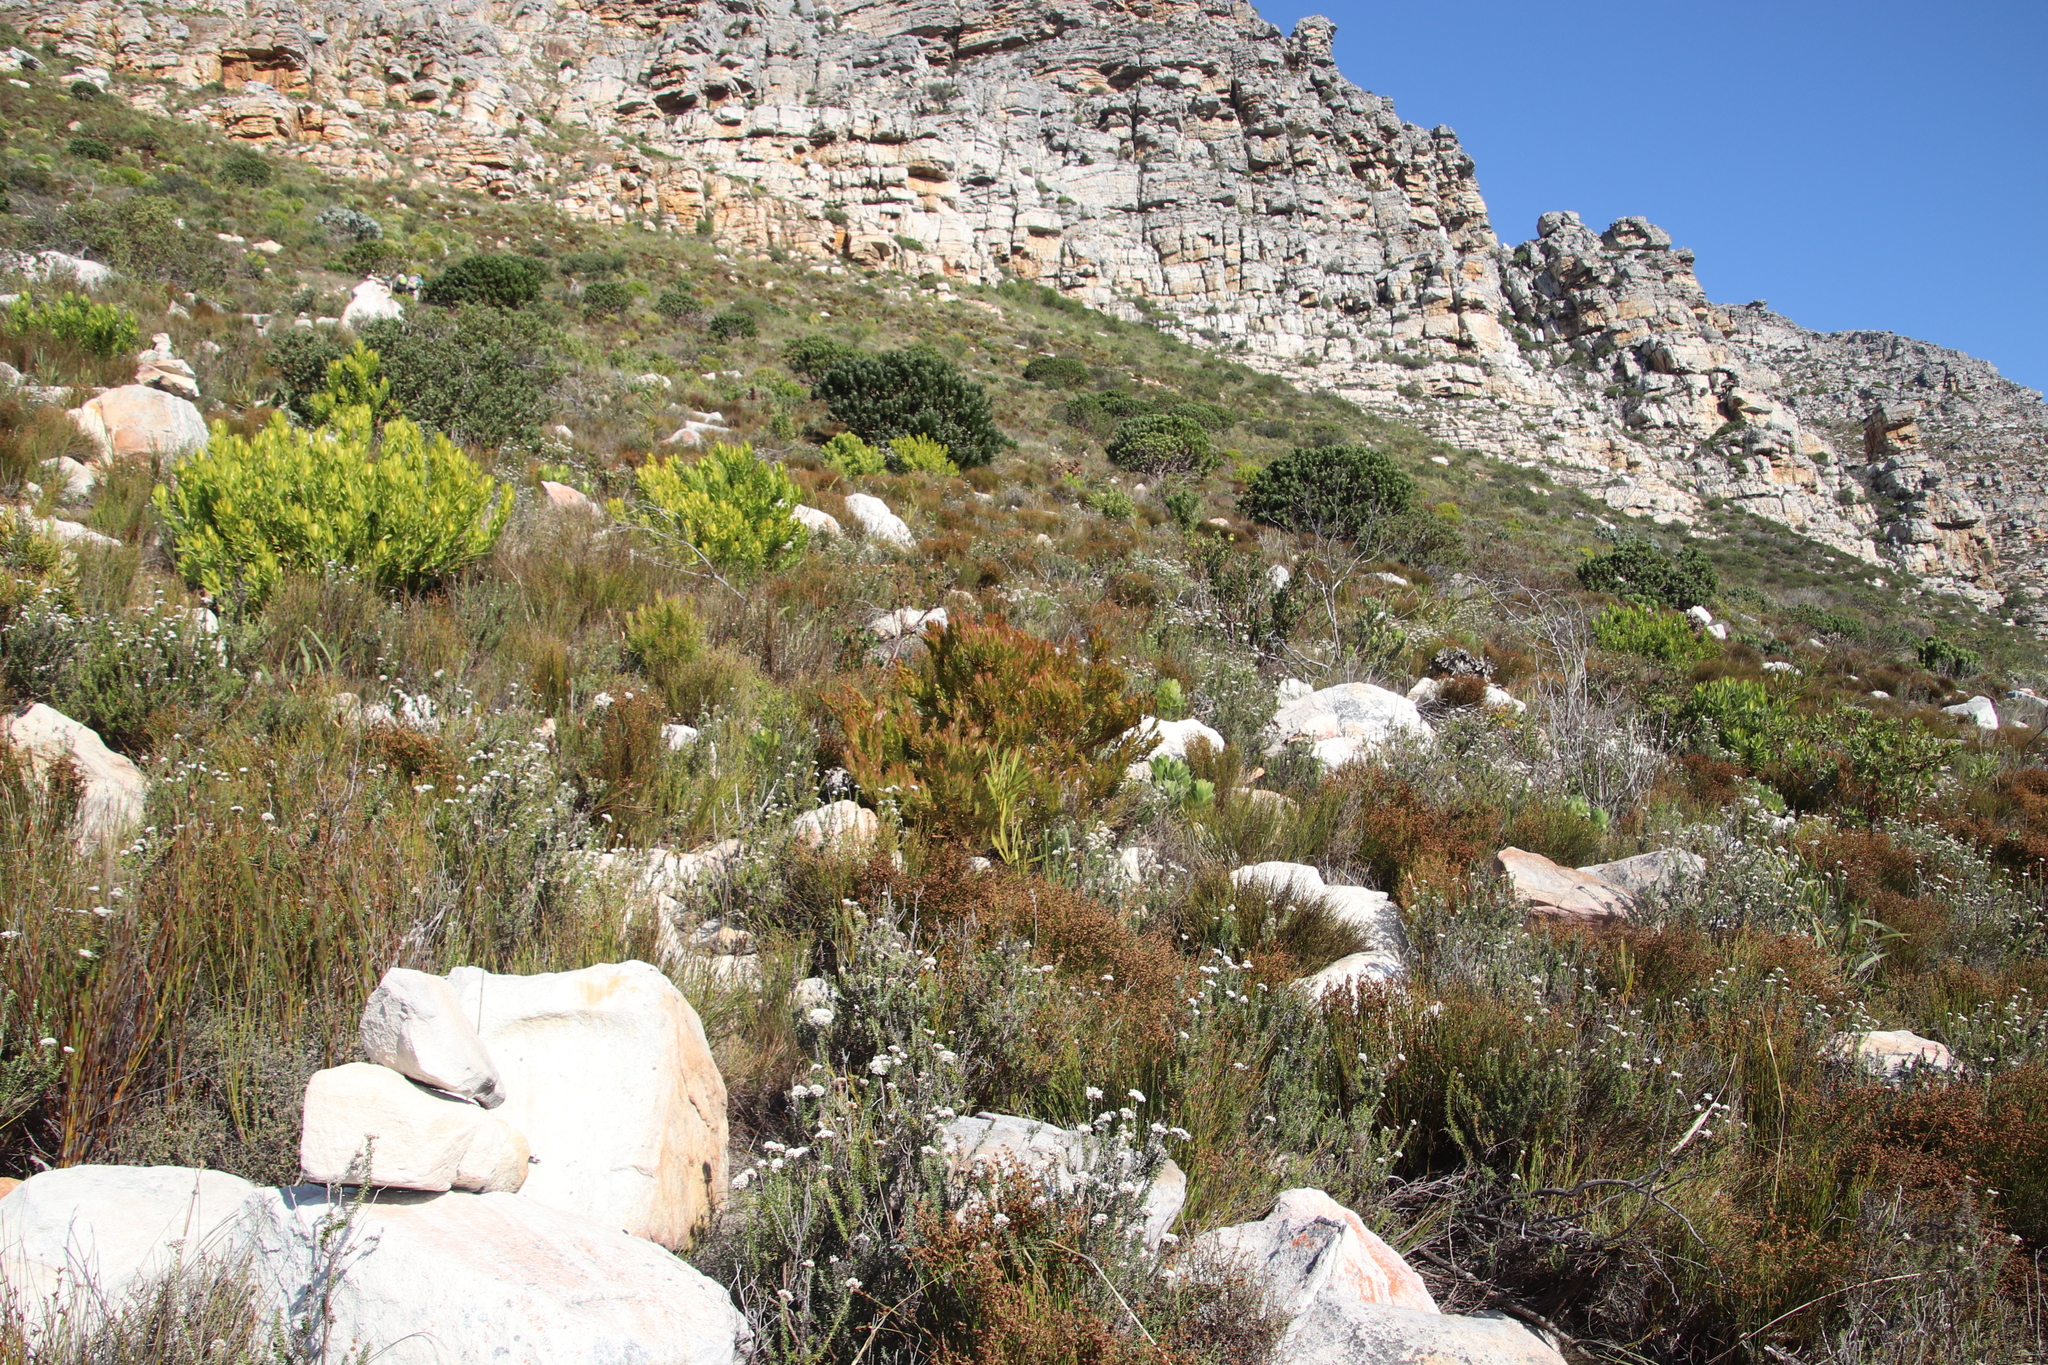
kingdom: Plantae
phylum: Tracheophyta
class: Magnoliopsida
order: Proteales
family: Proteaceae
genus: Leucadendron
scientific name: Leucadendron xanthoconus
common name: Sickle-leaf conebush
